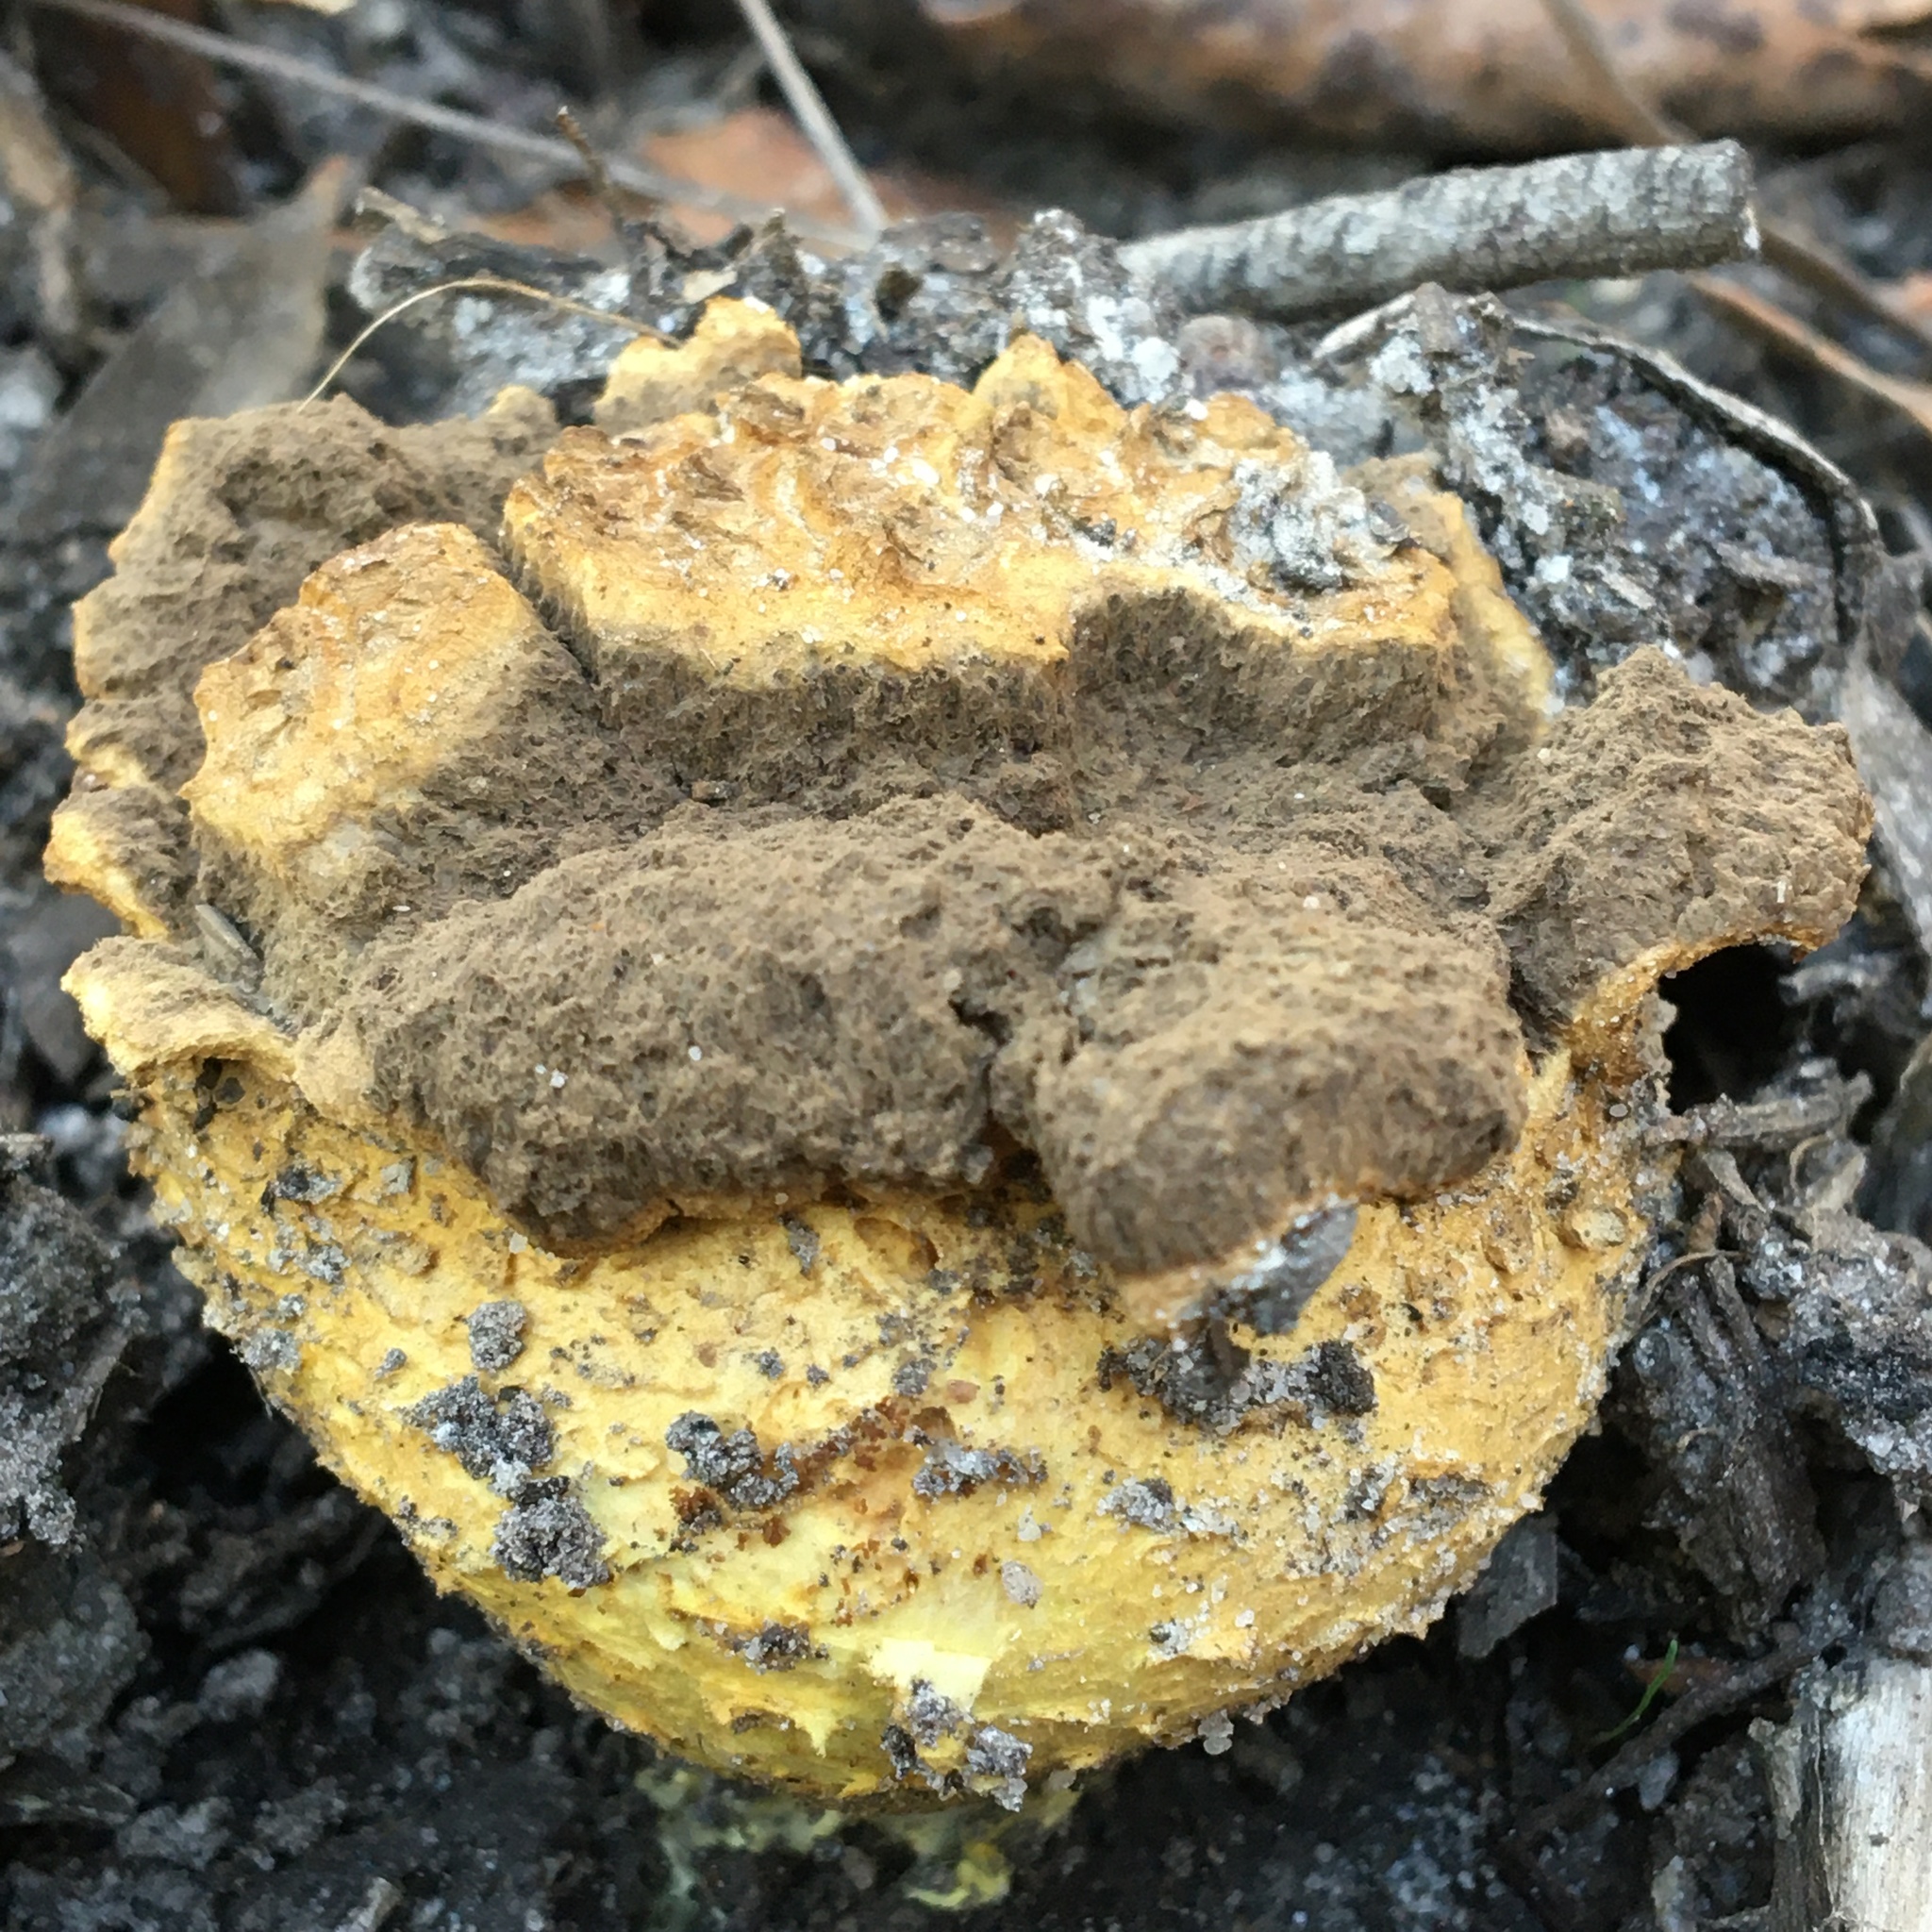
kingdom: Fungi
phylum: Basidiomycota
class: Agaricomycetes
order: Boletales
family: Sclerodermataceae
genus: Scleroderma
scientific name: Scleroderma cepa
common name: Onion earthball
